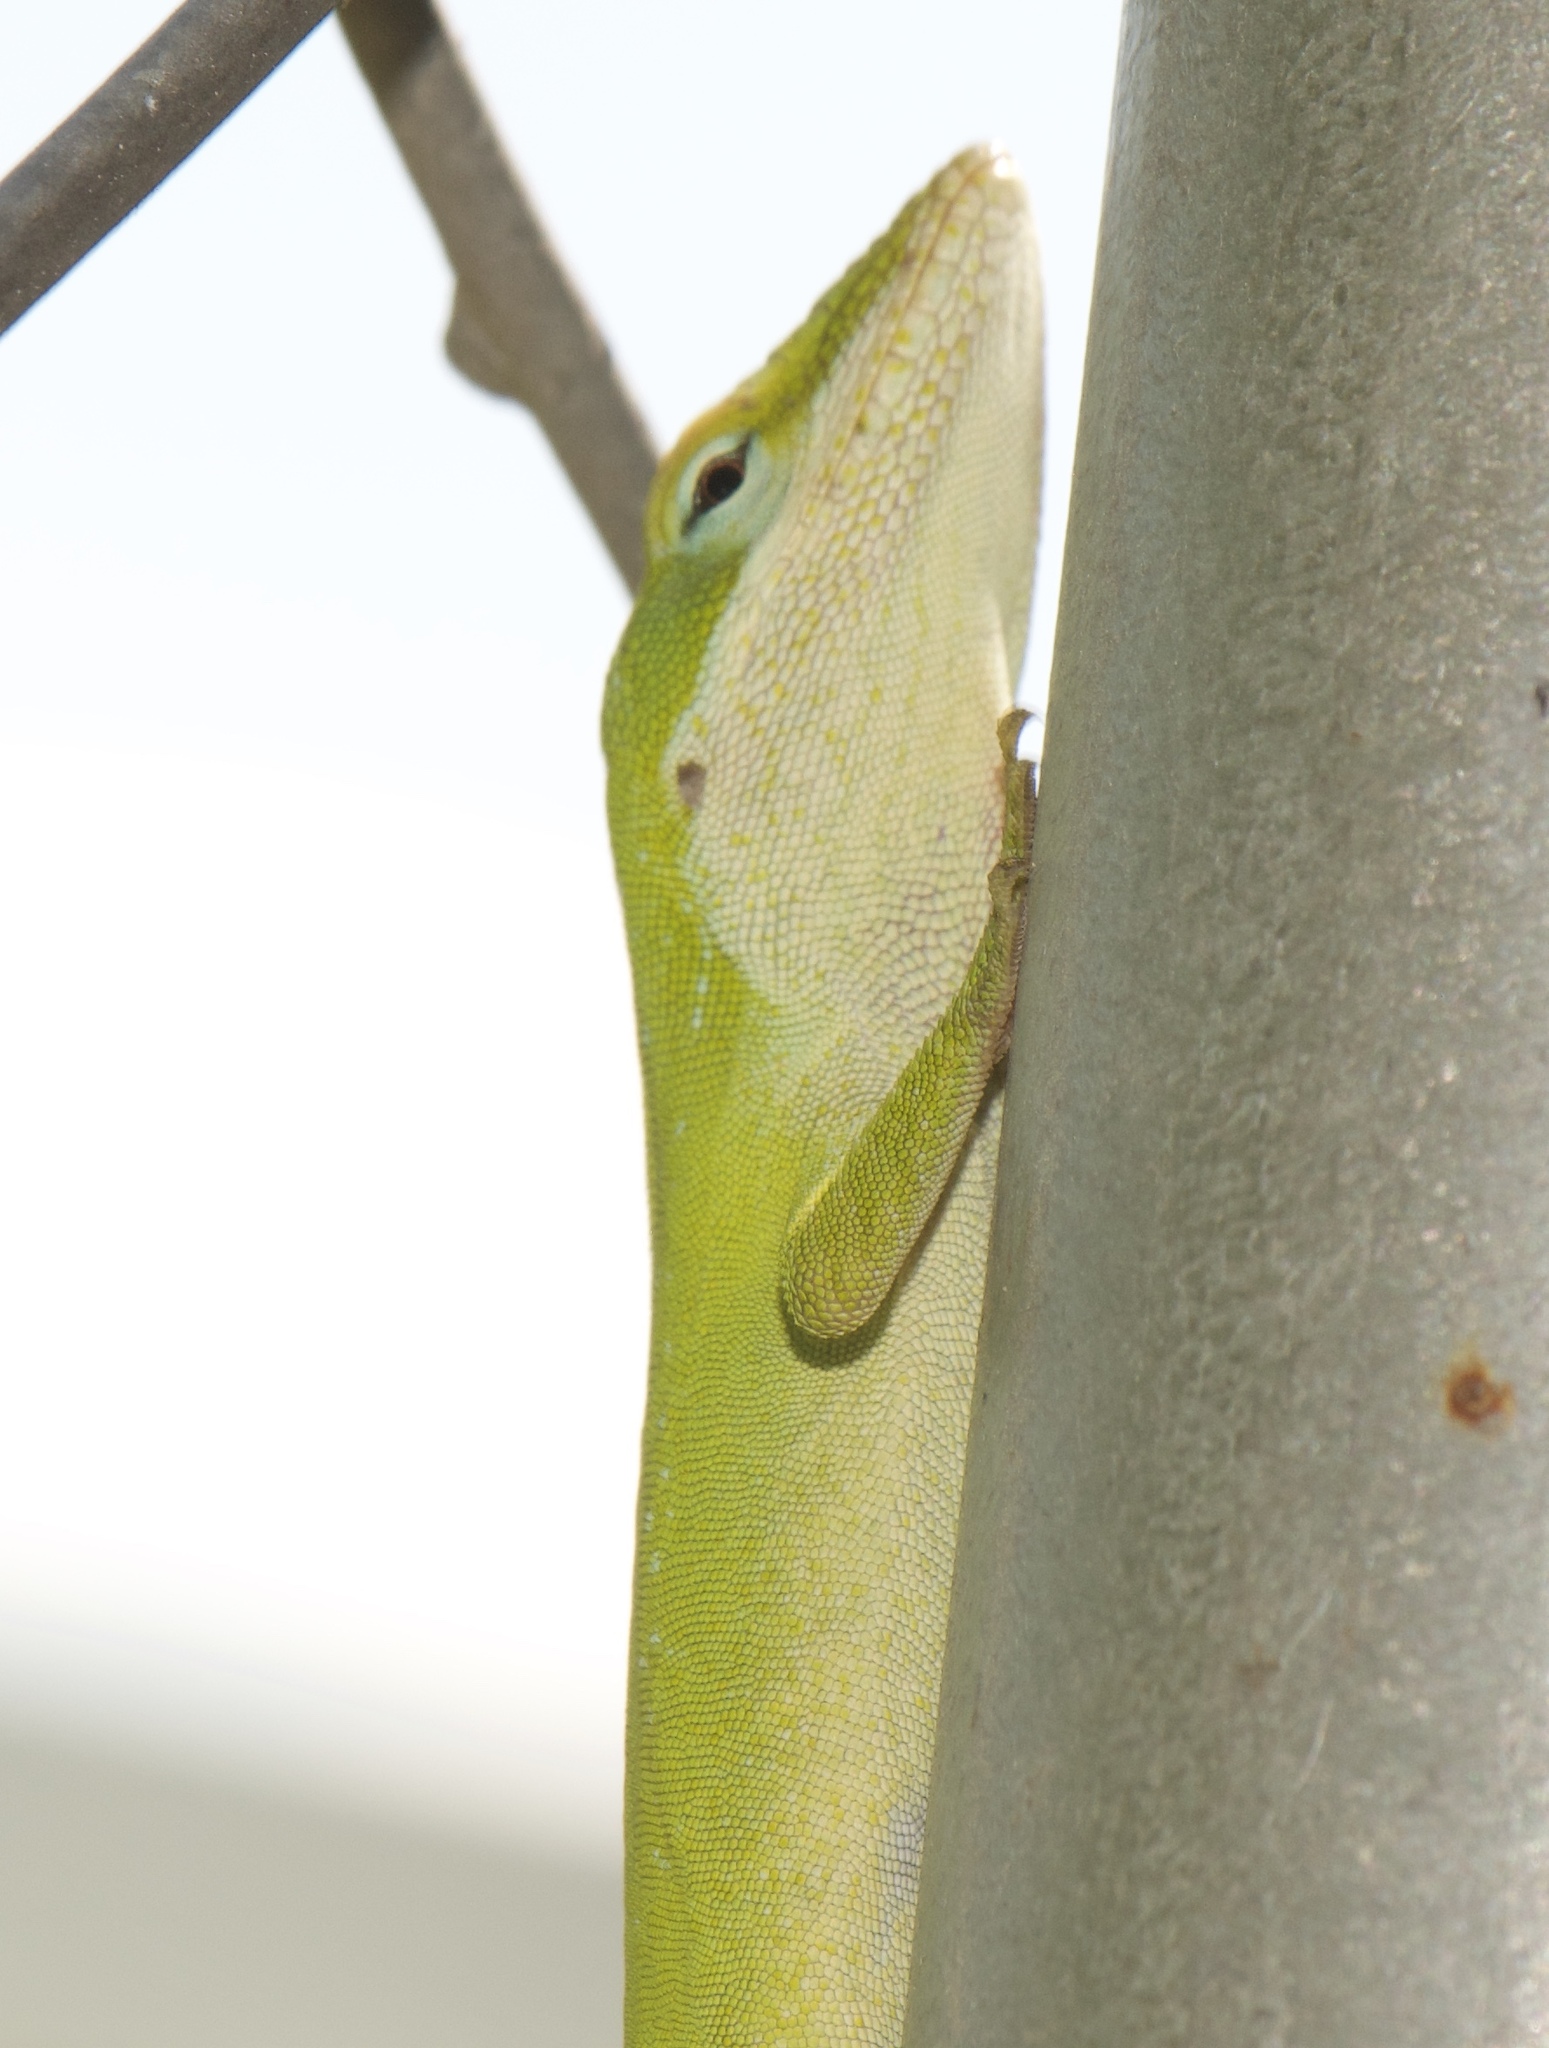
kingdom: Animalia
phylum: Chordata
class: Squamata
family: Dactyloidae
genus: Anolis
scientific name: Anolis carolinensis
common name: Green anole
